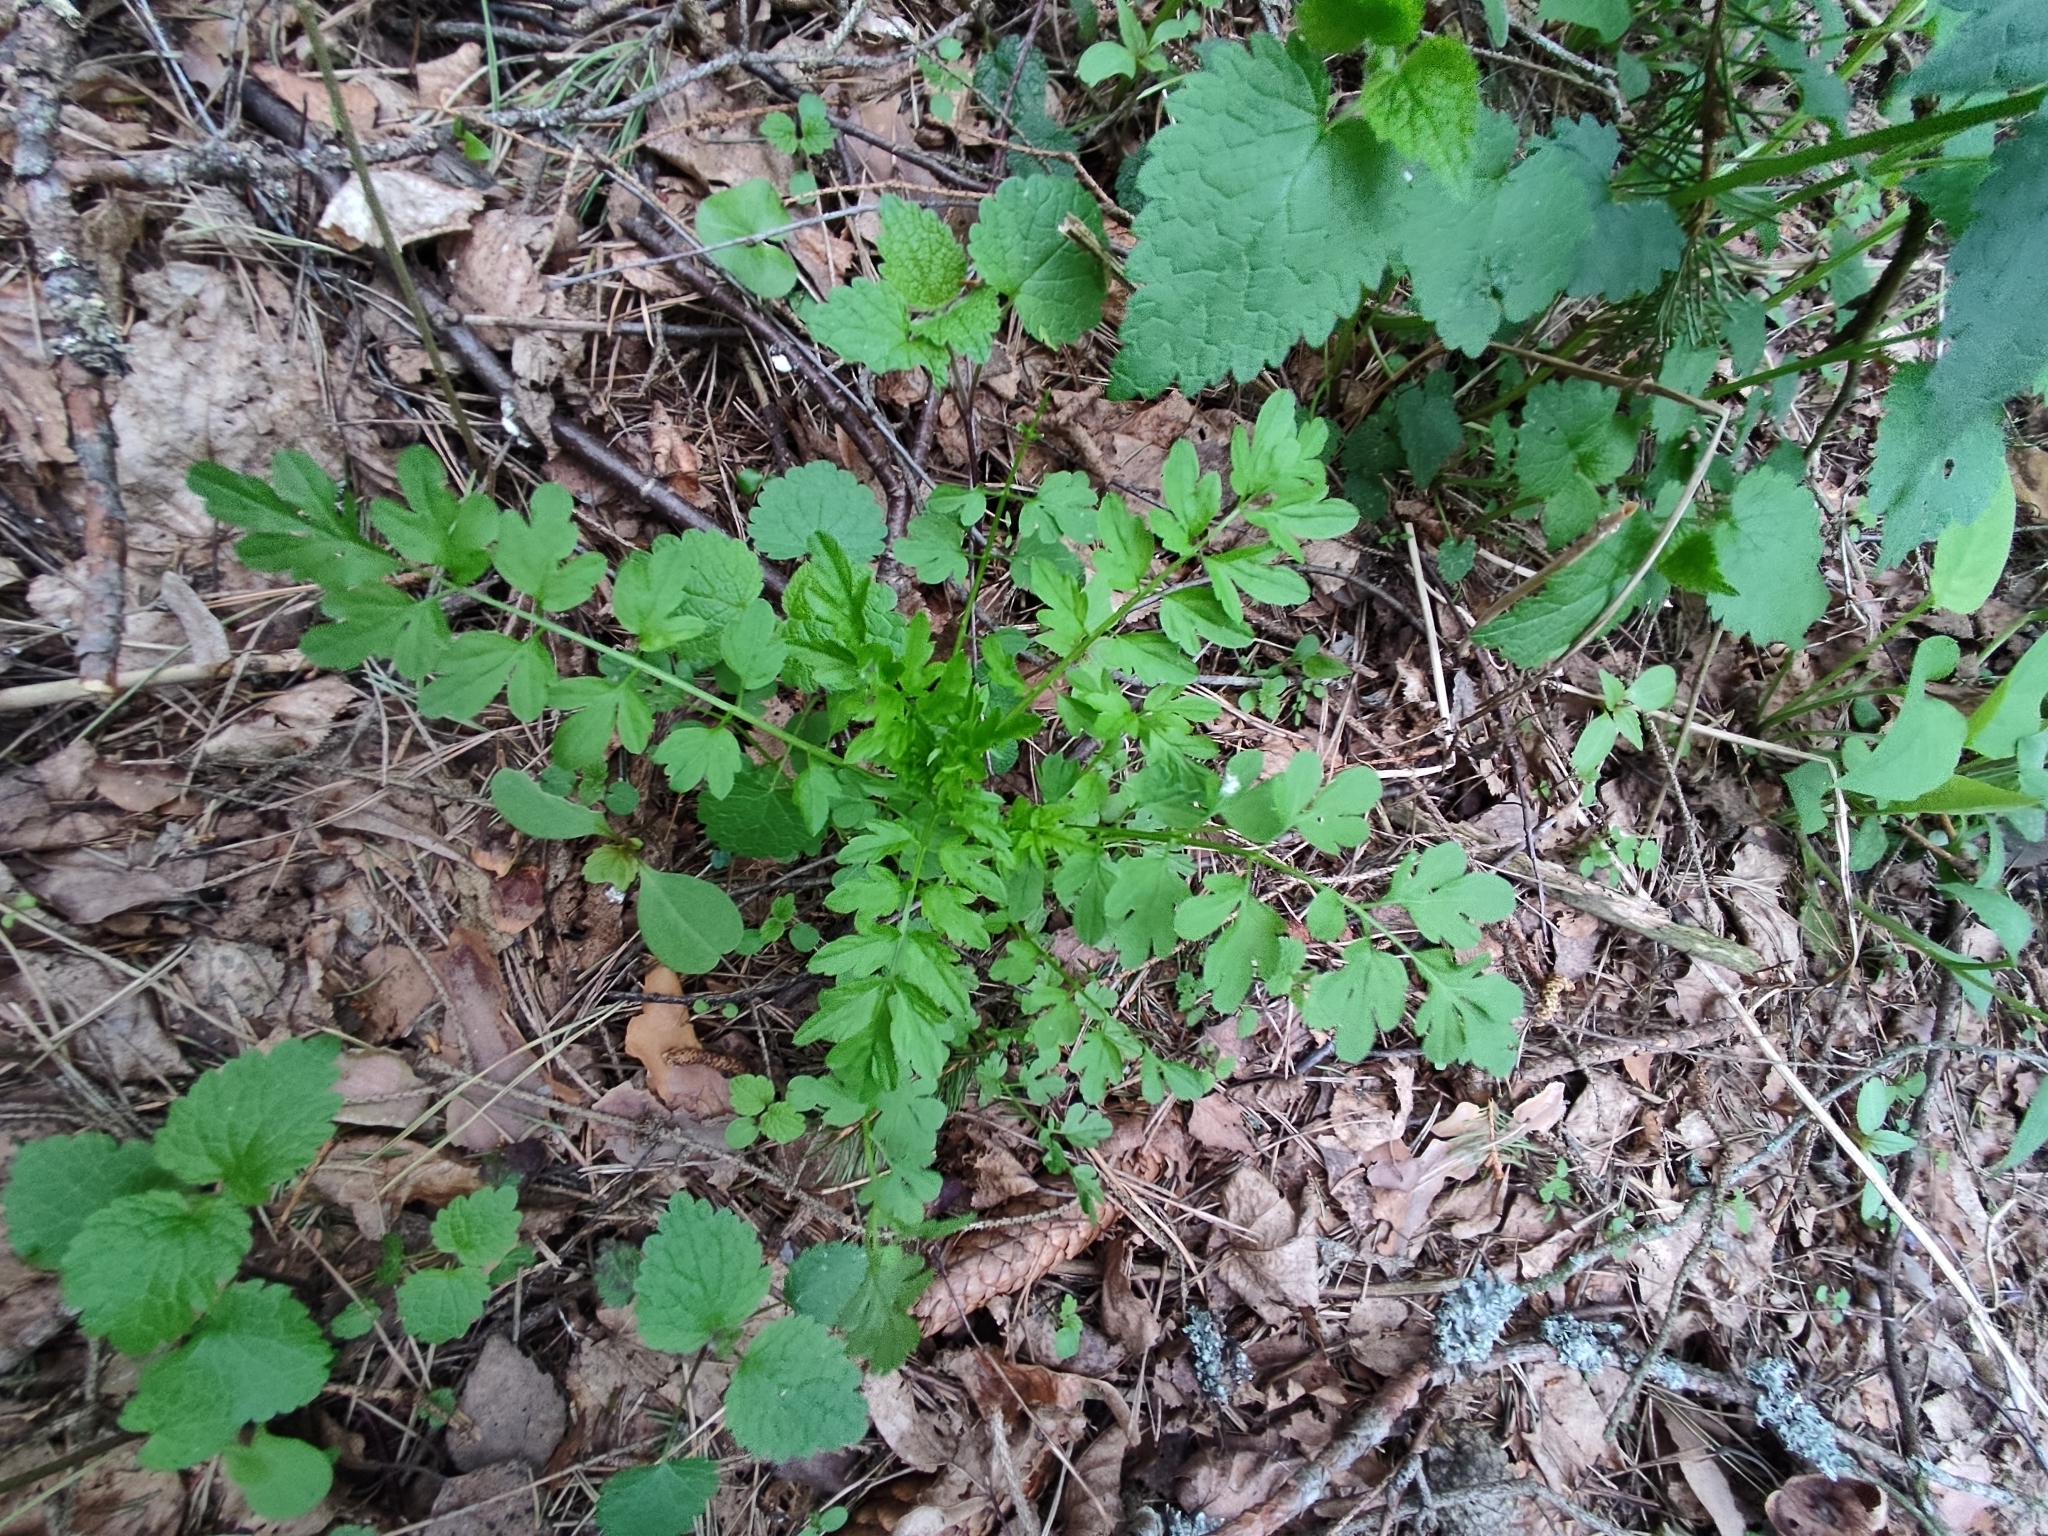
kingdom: Plantae
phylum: Tracheophyta
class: Magnoliopsida
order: Brassicales
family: Brassicaceae
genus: Cardamine
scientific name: Cardamine impatiens
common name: Narrow-leaved bitter-cress
